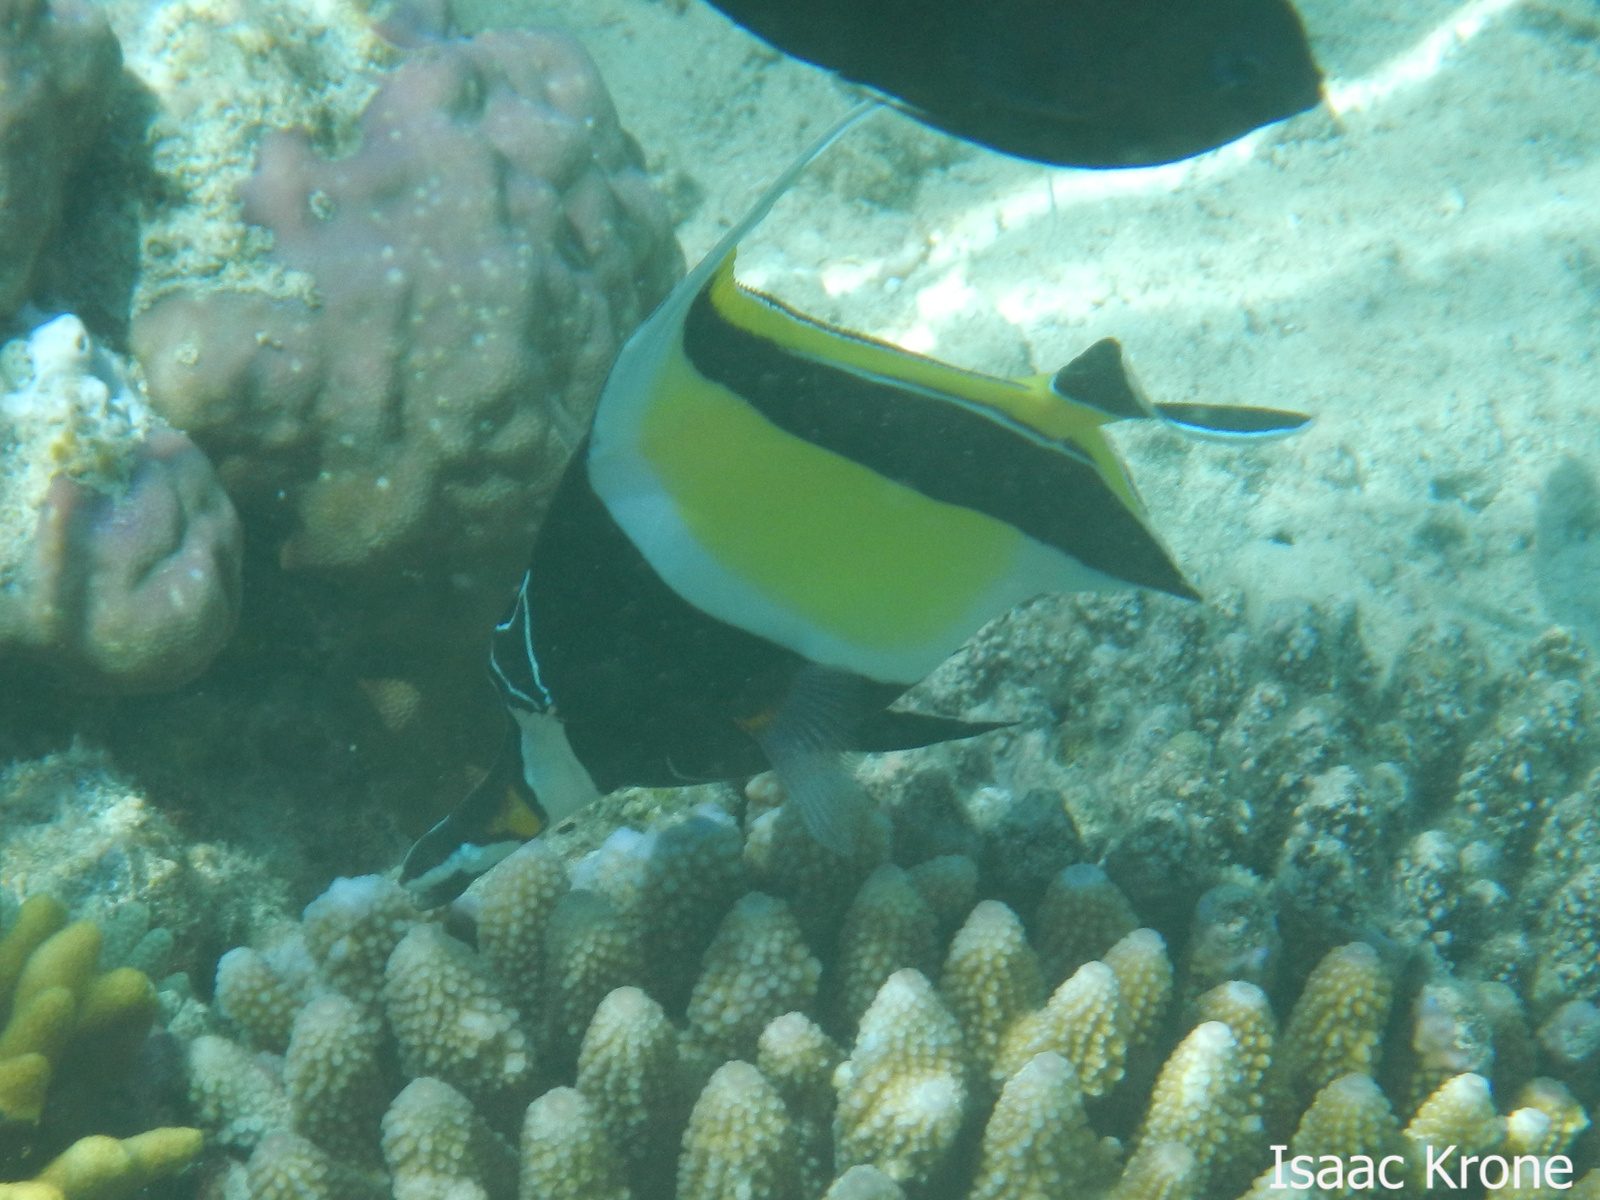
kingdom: Animalia
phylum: Chordata
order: Perciformes
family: Zanclidae
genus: Zanclus
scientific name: Zanclus cornutus
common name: Moorish idol
